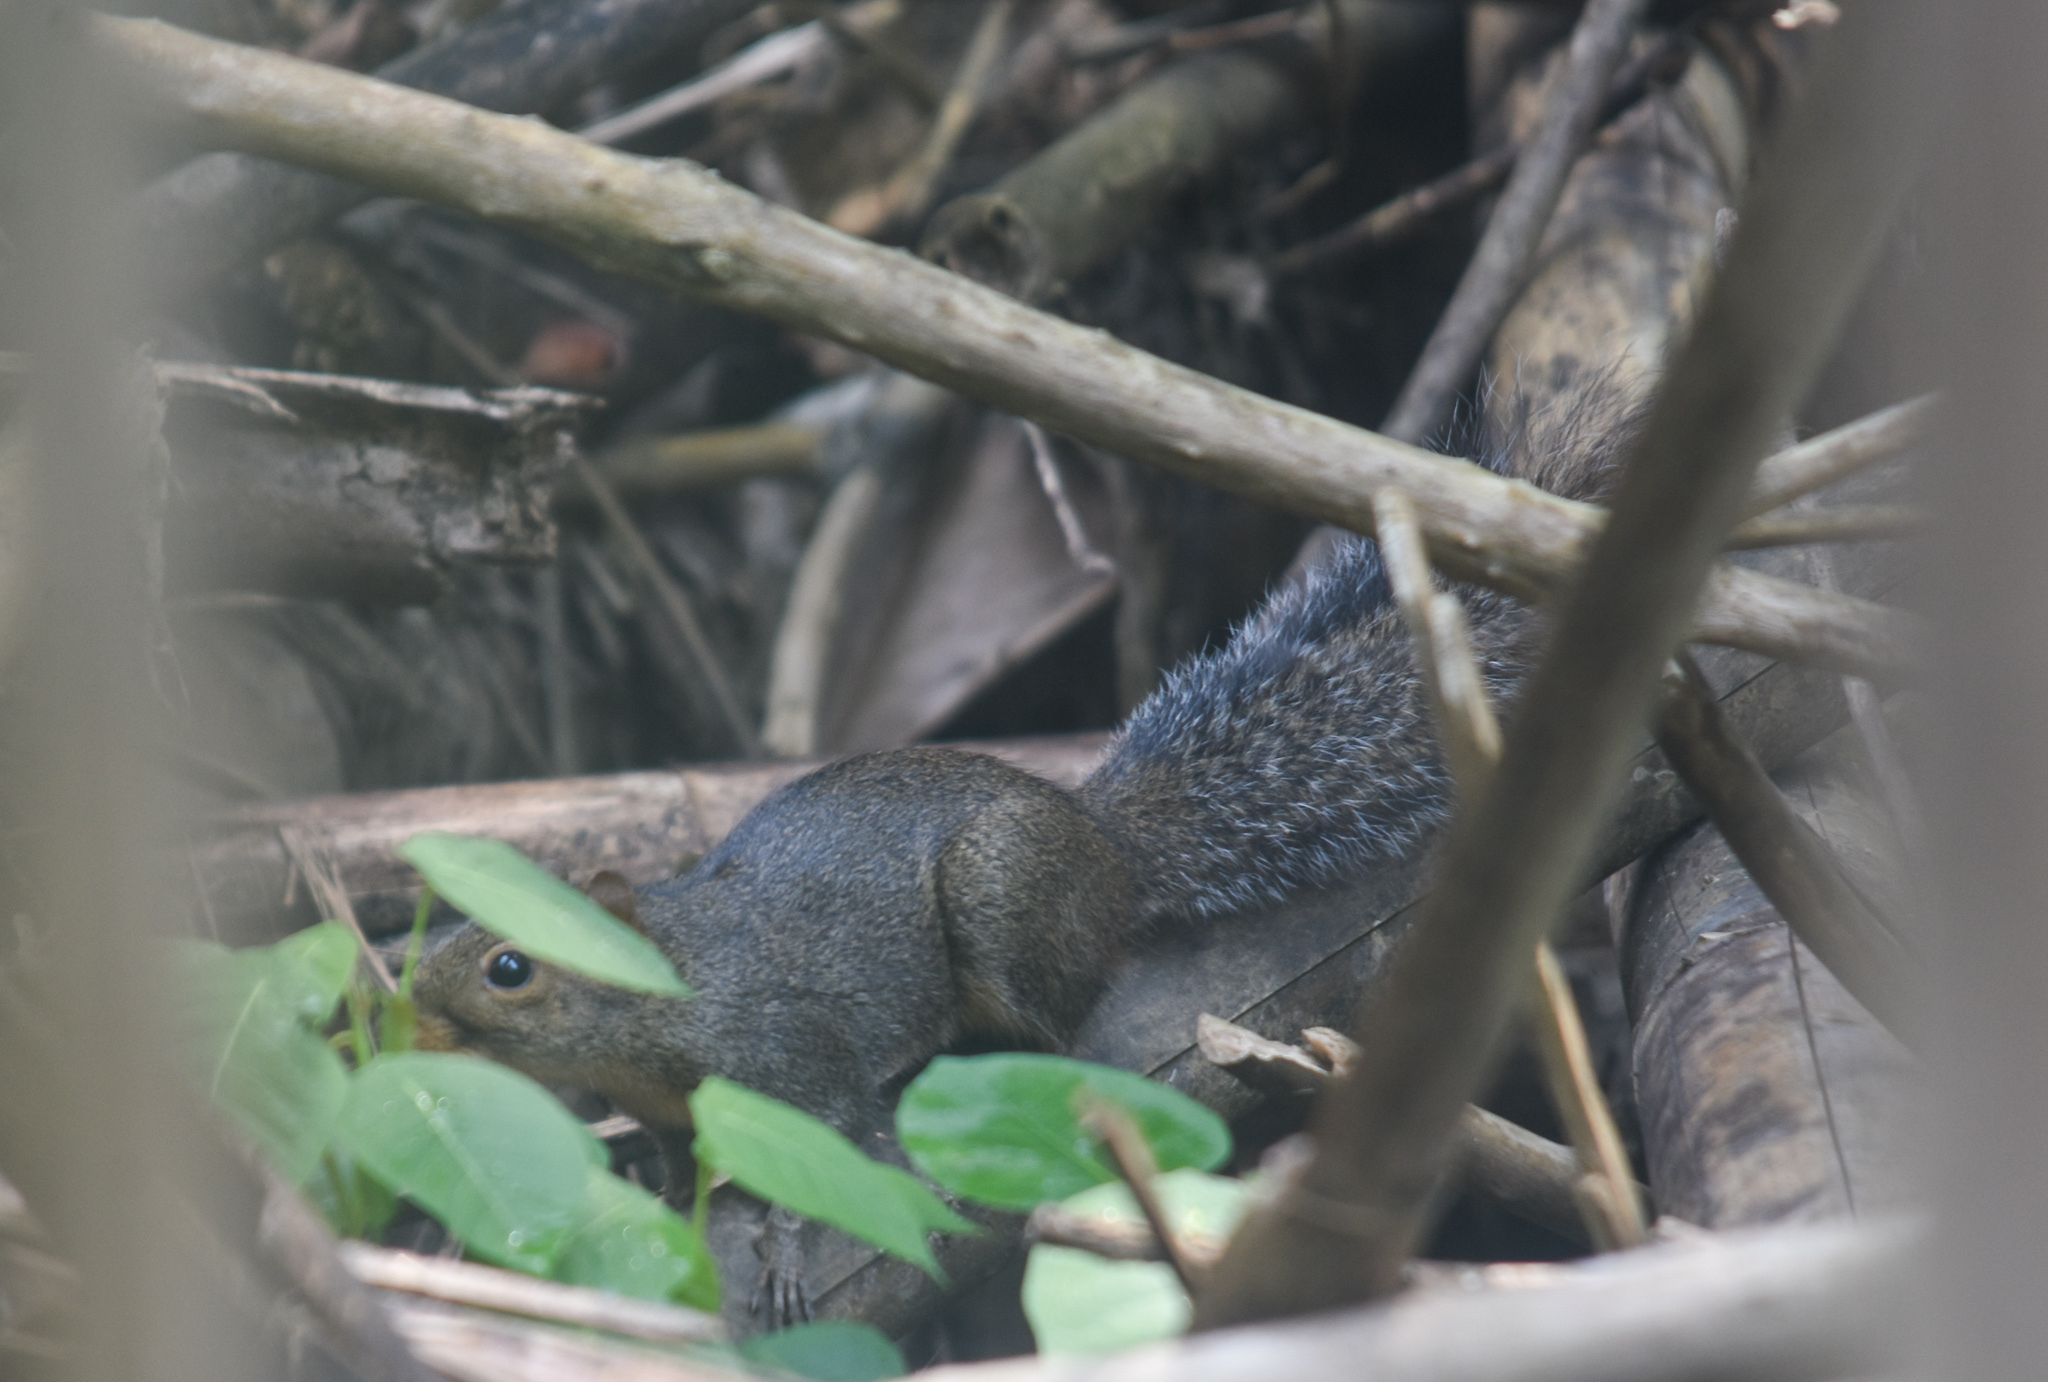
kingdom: Animalia
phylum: Chordata
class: Mammalia
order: Rodentia
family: Sciuridae
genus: Dremomys
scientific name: Dremomys lokriah
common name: Orange-bellied himalayan squirrel
